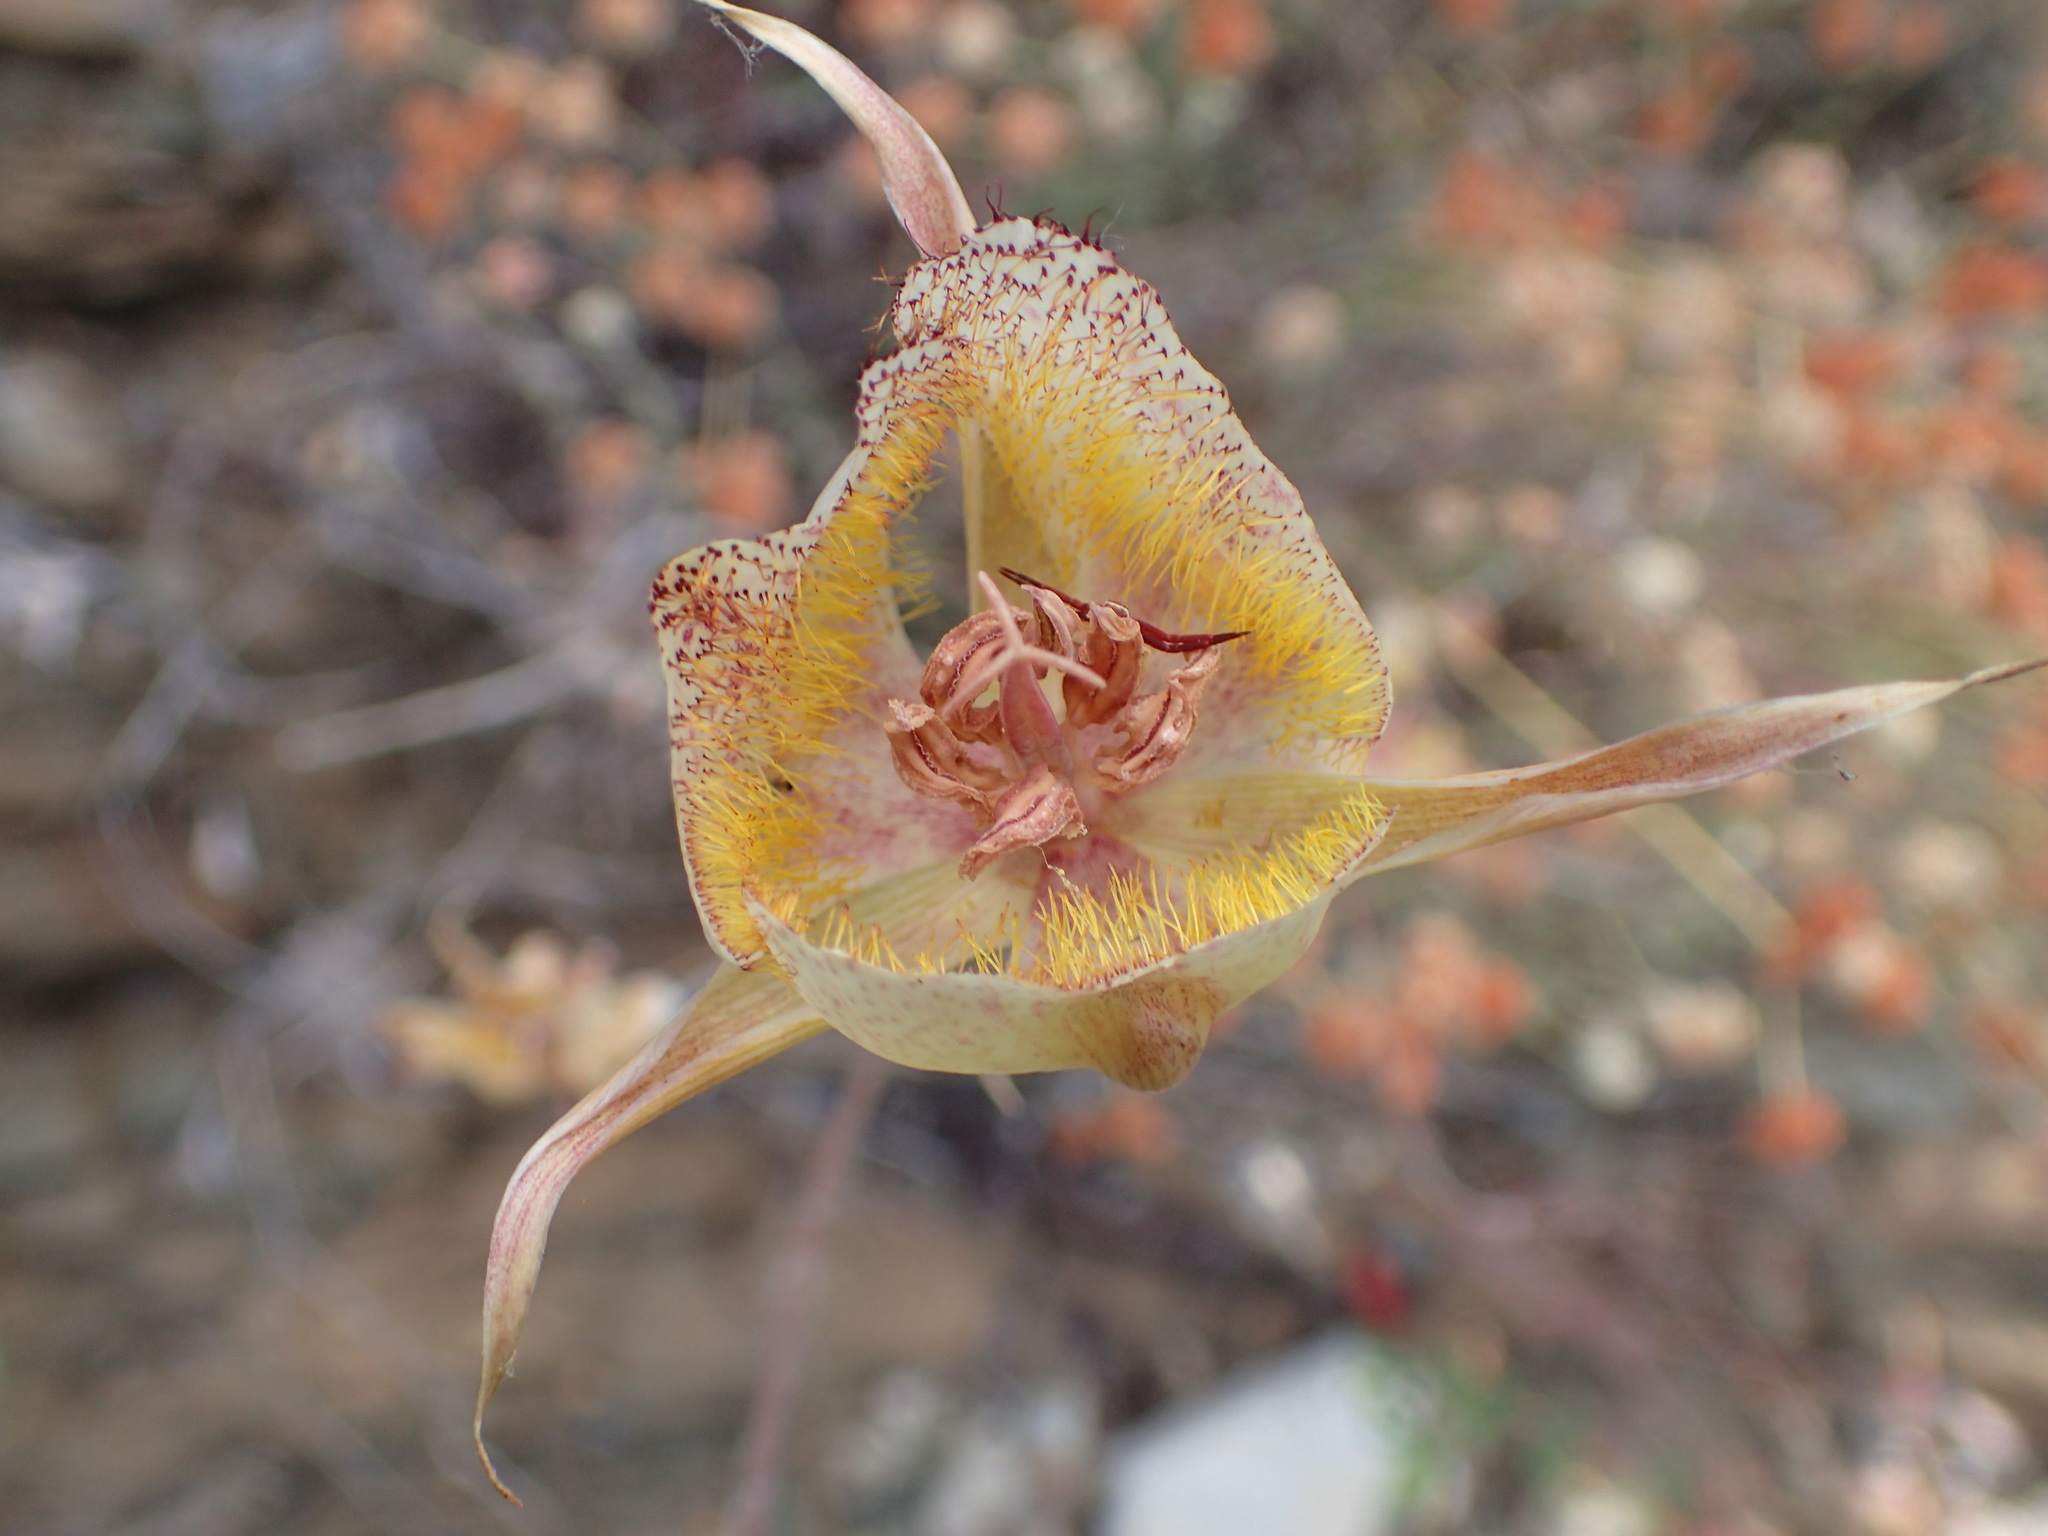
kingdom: Plantae
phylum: Tracheophyta
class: Liliopsida
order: Liliales
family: Liliaceae
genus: Calochortus
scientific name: Calochortus fimbriatus
